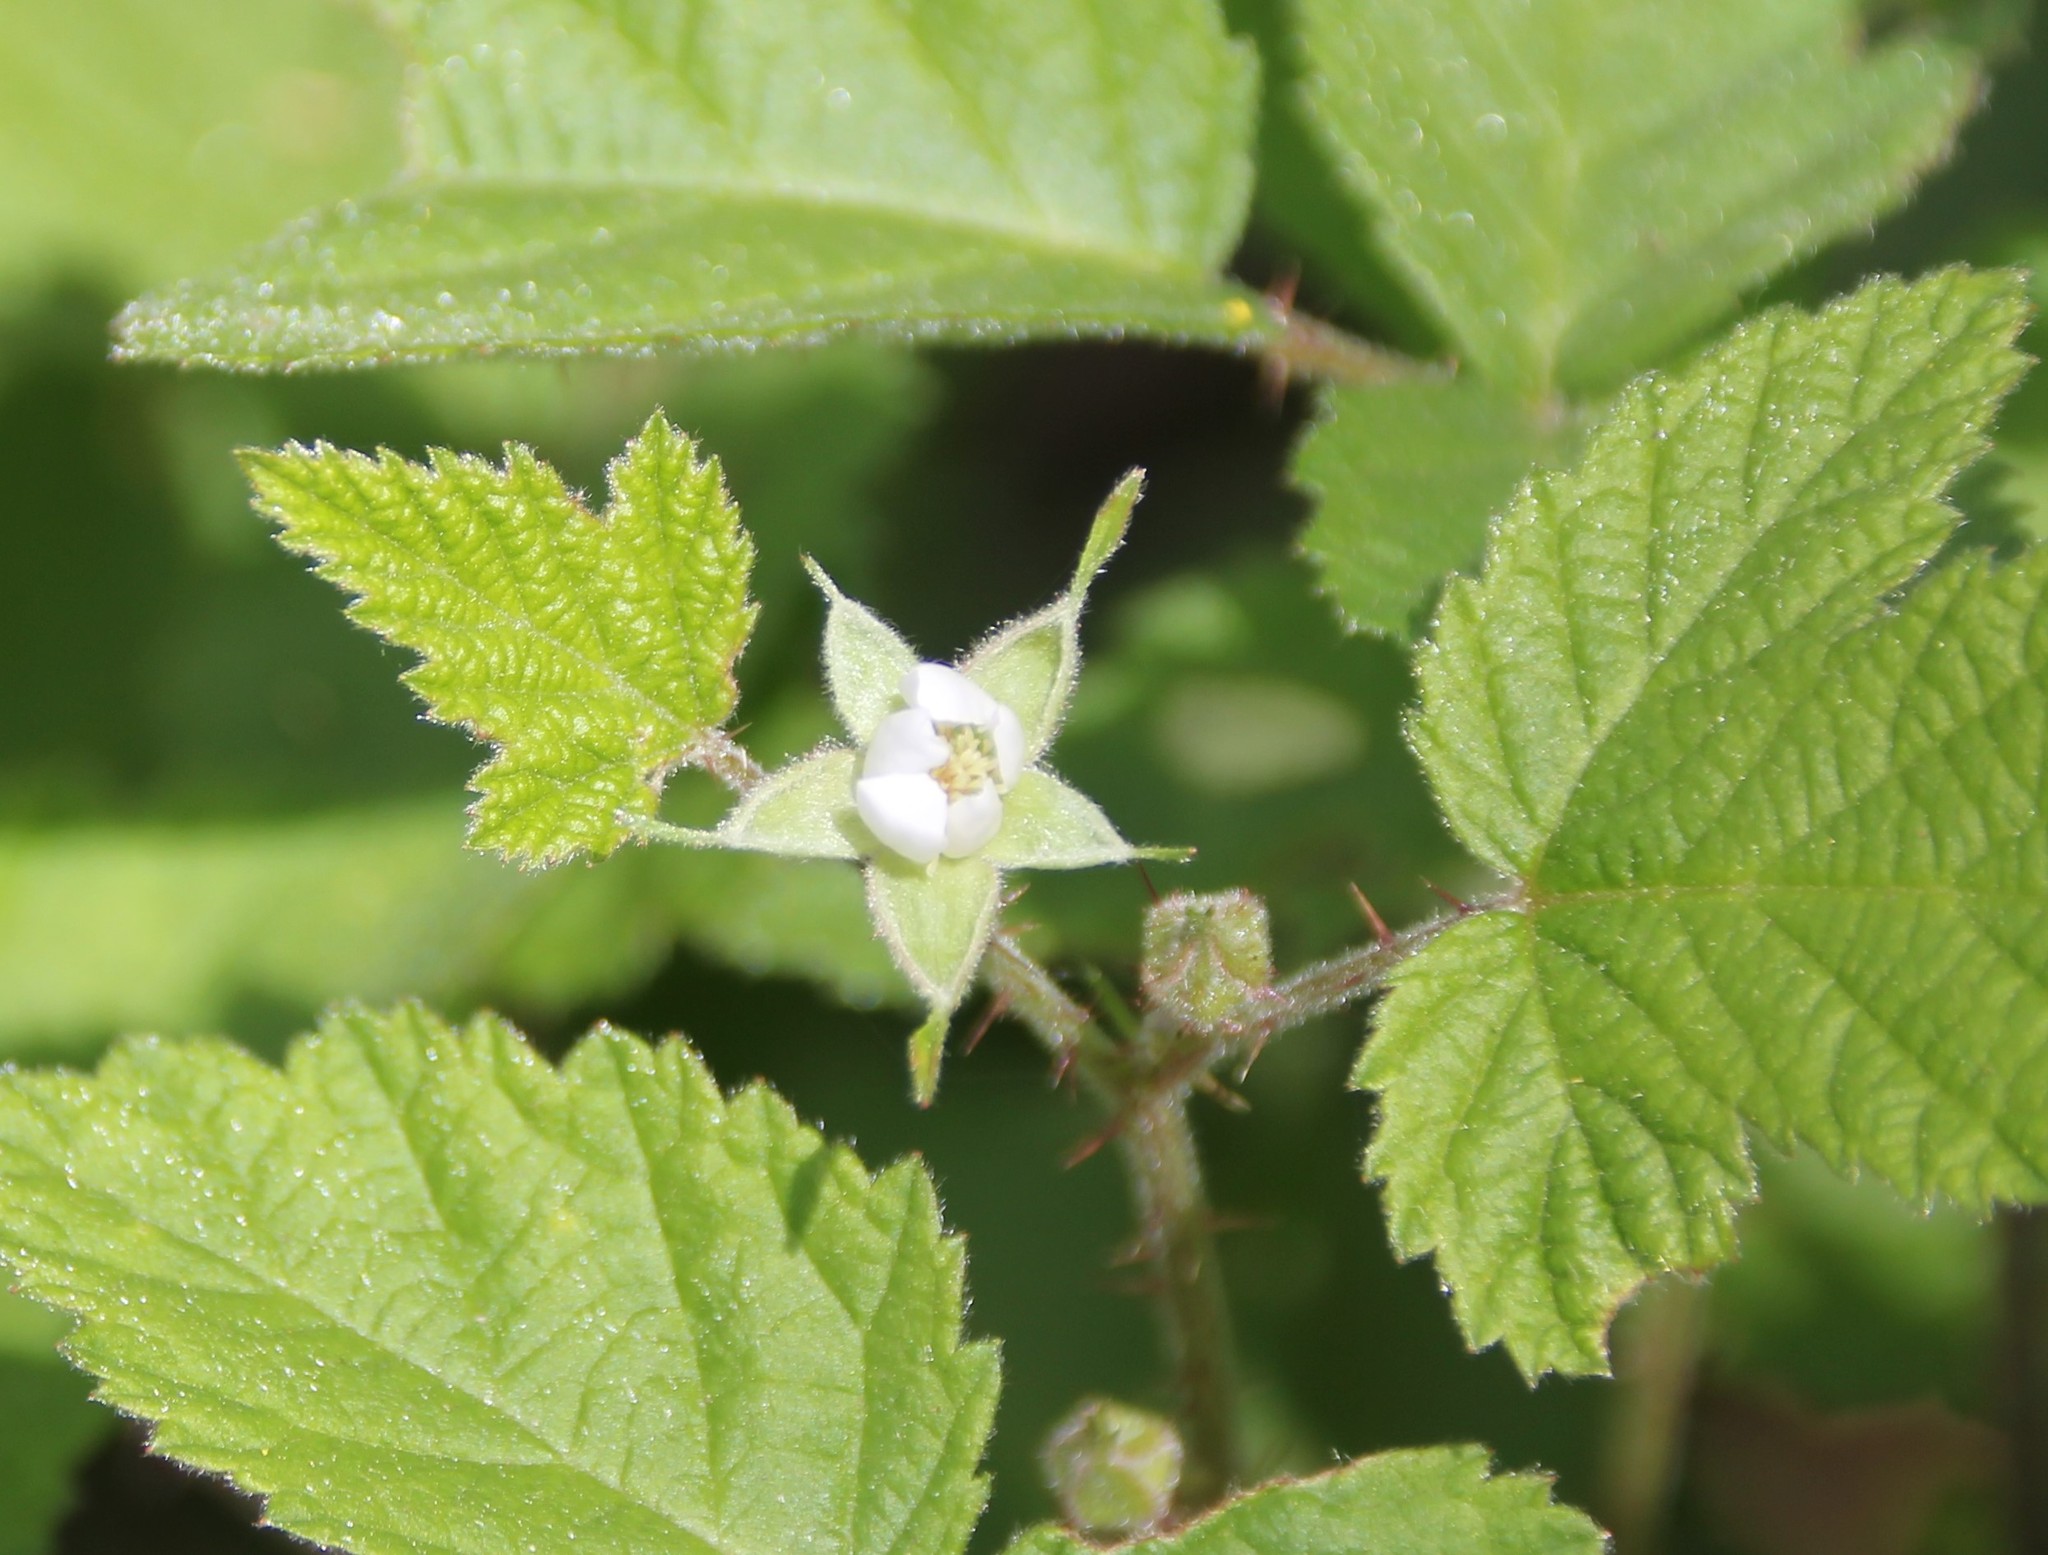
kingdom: Plantae
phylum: Tracheophyta
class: Magnoliopsida
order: Rosales
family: Rosaceae
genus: Rubus
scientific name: Rubus ursinus
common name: Pacific blackberry
